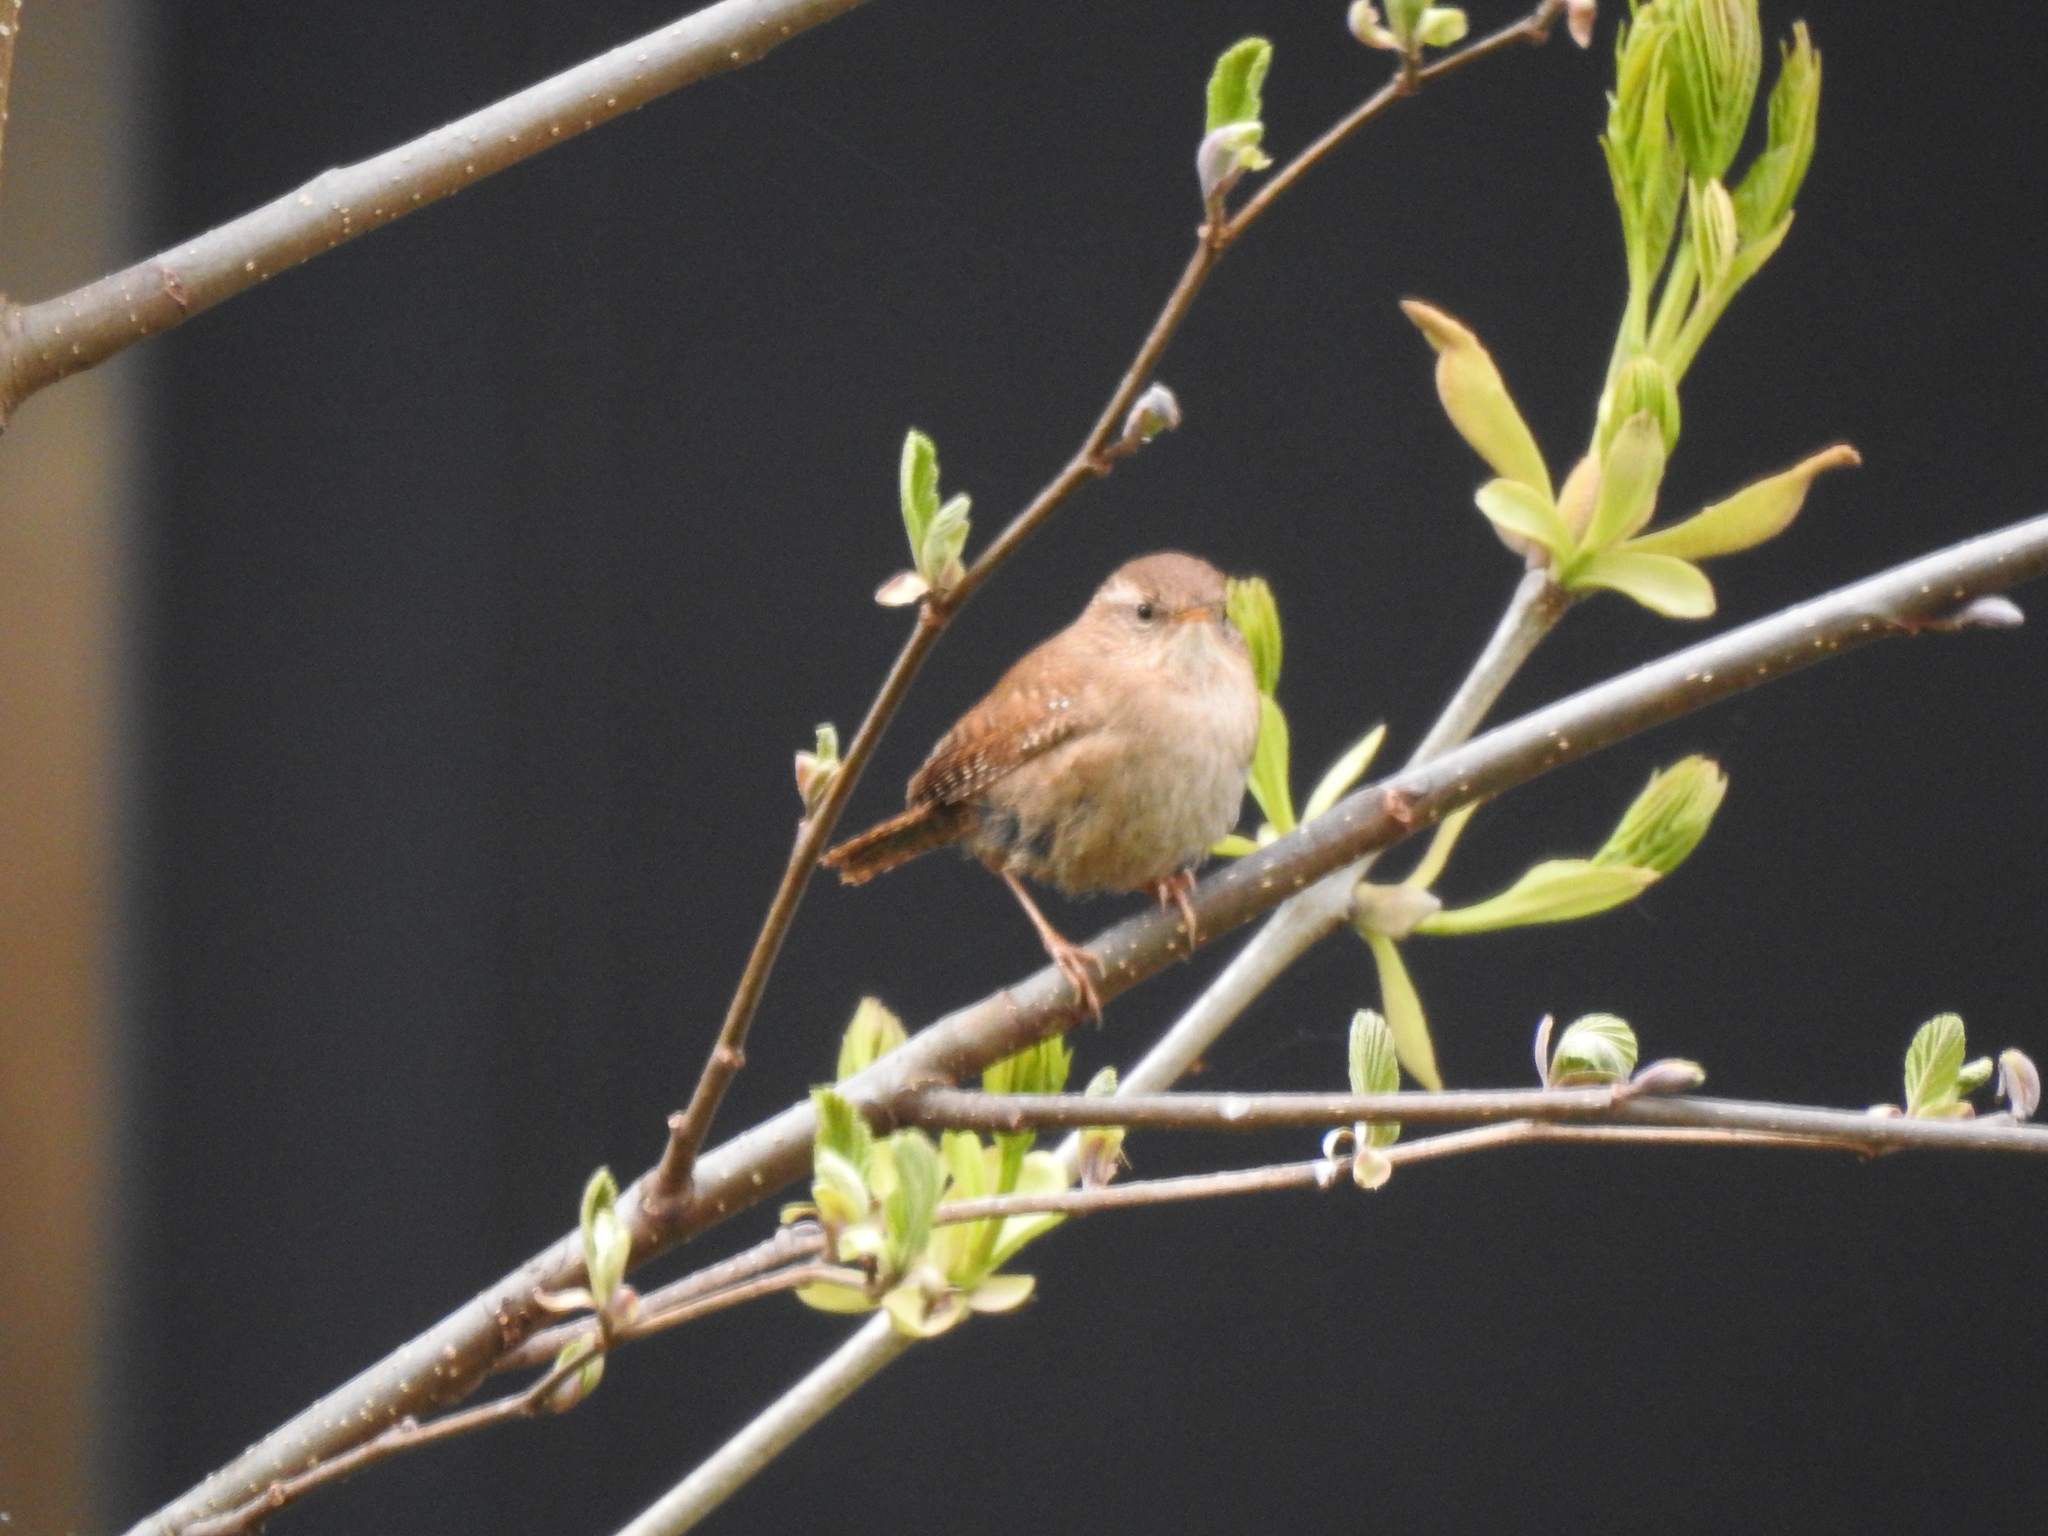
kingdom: Animalia
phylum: Chordata
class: Aves
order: Passeriformes
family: Troglodytidae
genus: Troglodytes
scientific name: Troglodytes troglodytes
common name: Eurasian wren
